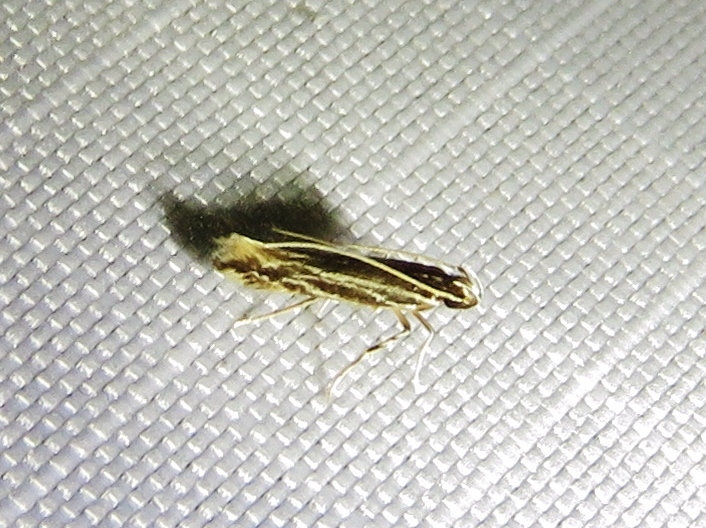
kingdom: Animalia
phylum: Arthropoda
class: Insecta
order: Lepidoptera
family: Cosmopterigidae
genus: Eralea
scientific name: Eralea albalineella
